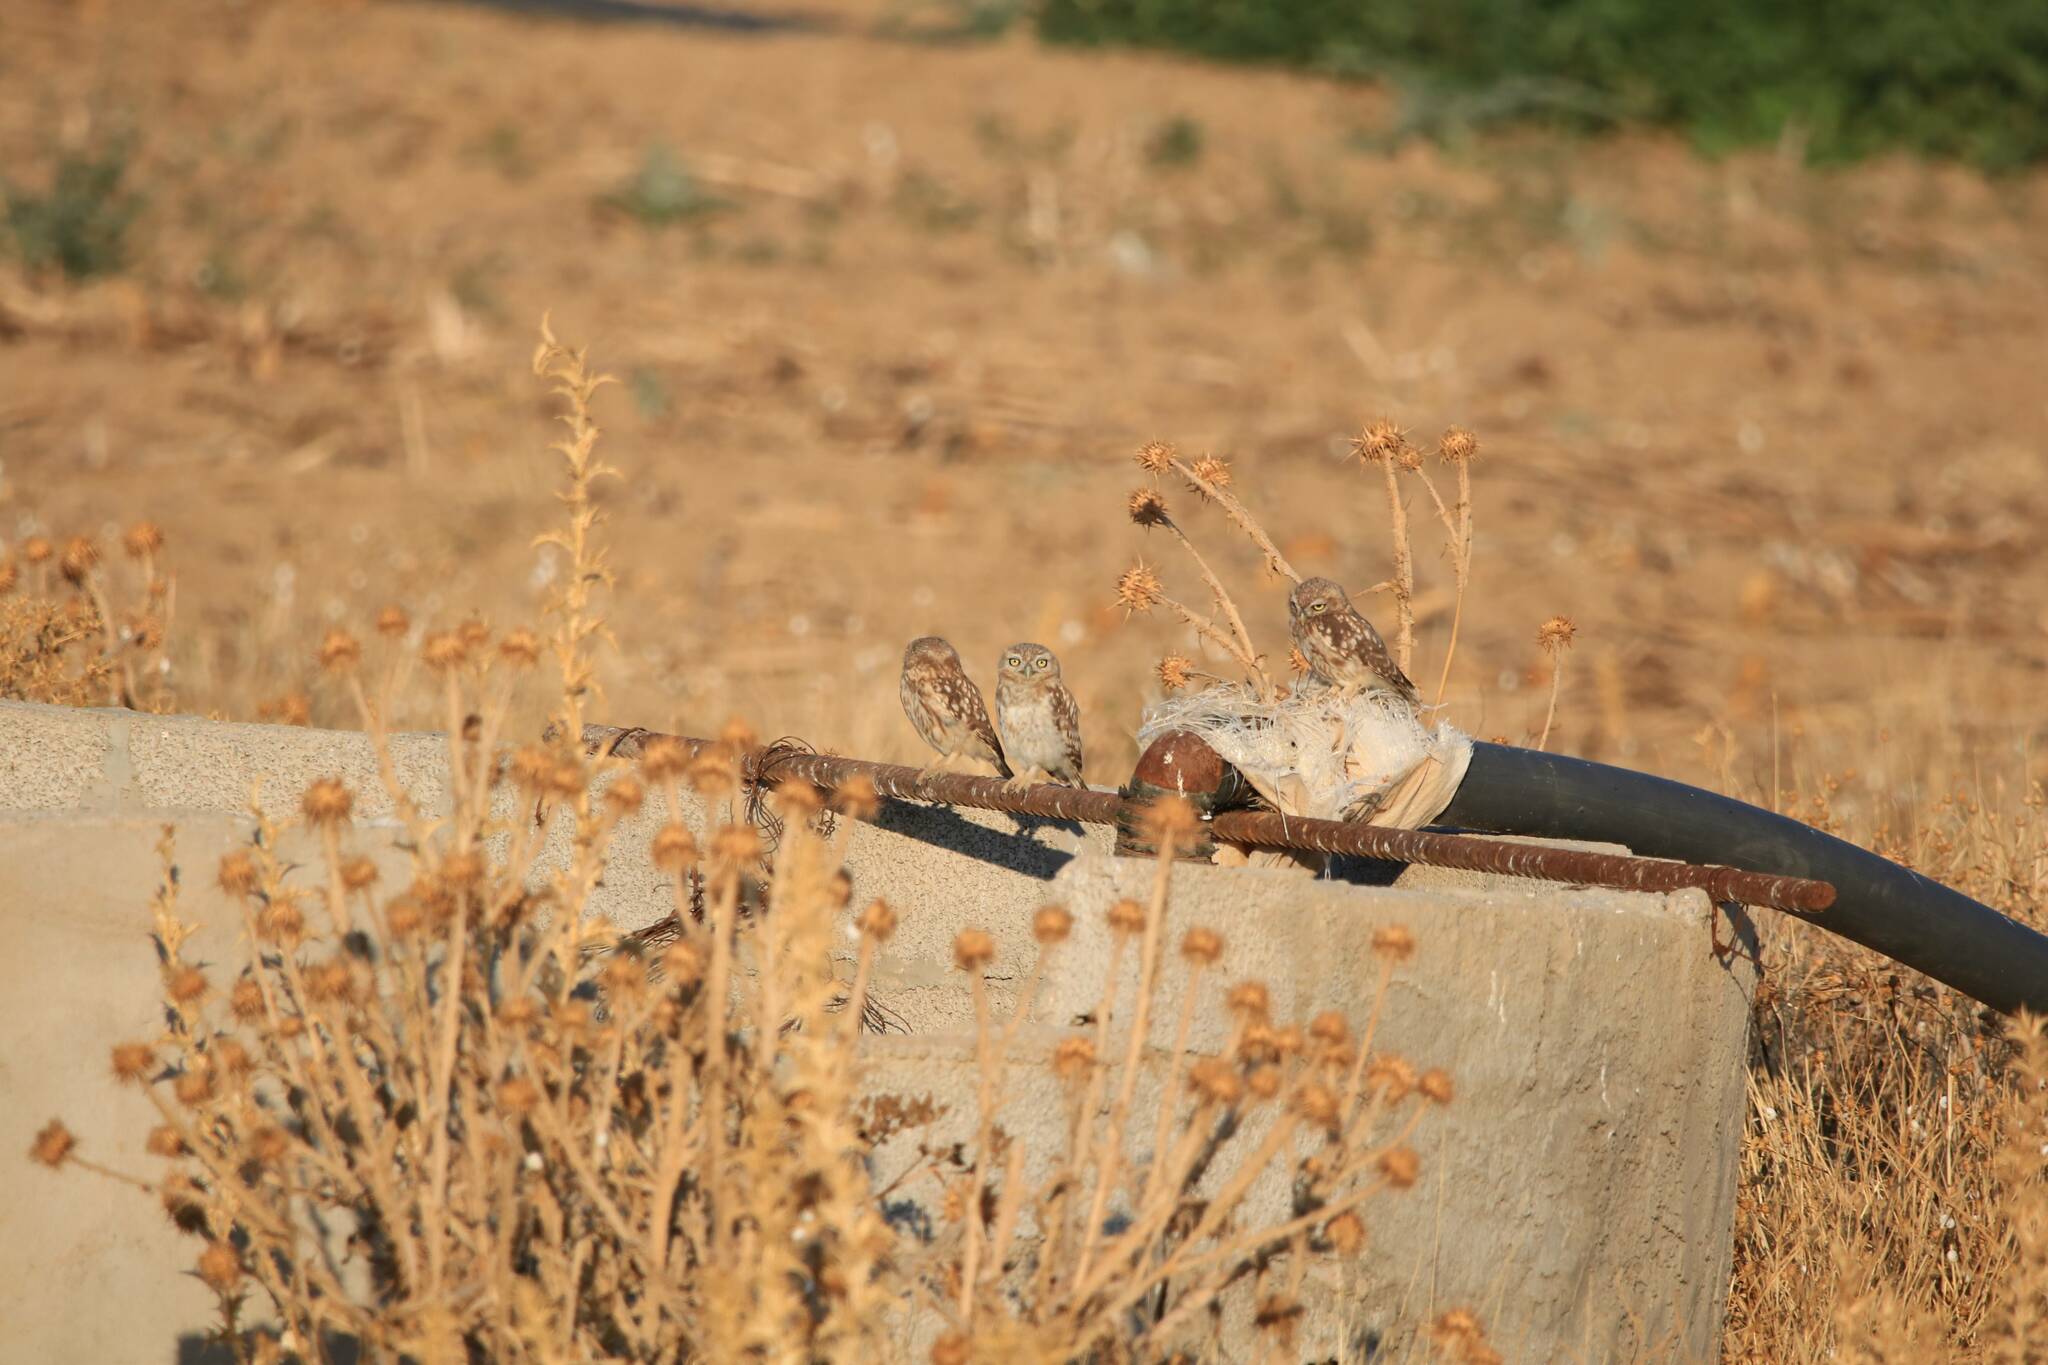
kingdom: Animalia
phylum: Chordata
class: Aves
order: Strigiformes
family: Strigidae
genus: Athene
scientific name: Athene noctua
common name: Little owl
